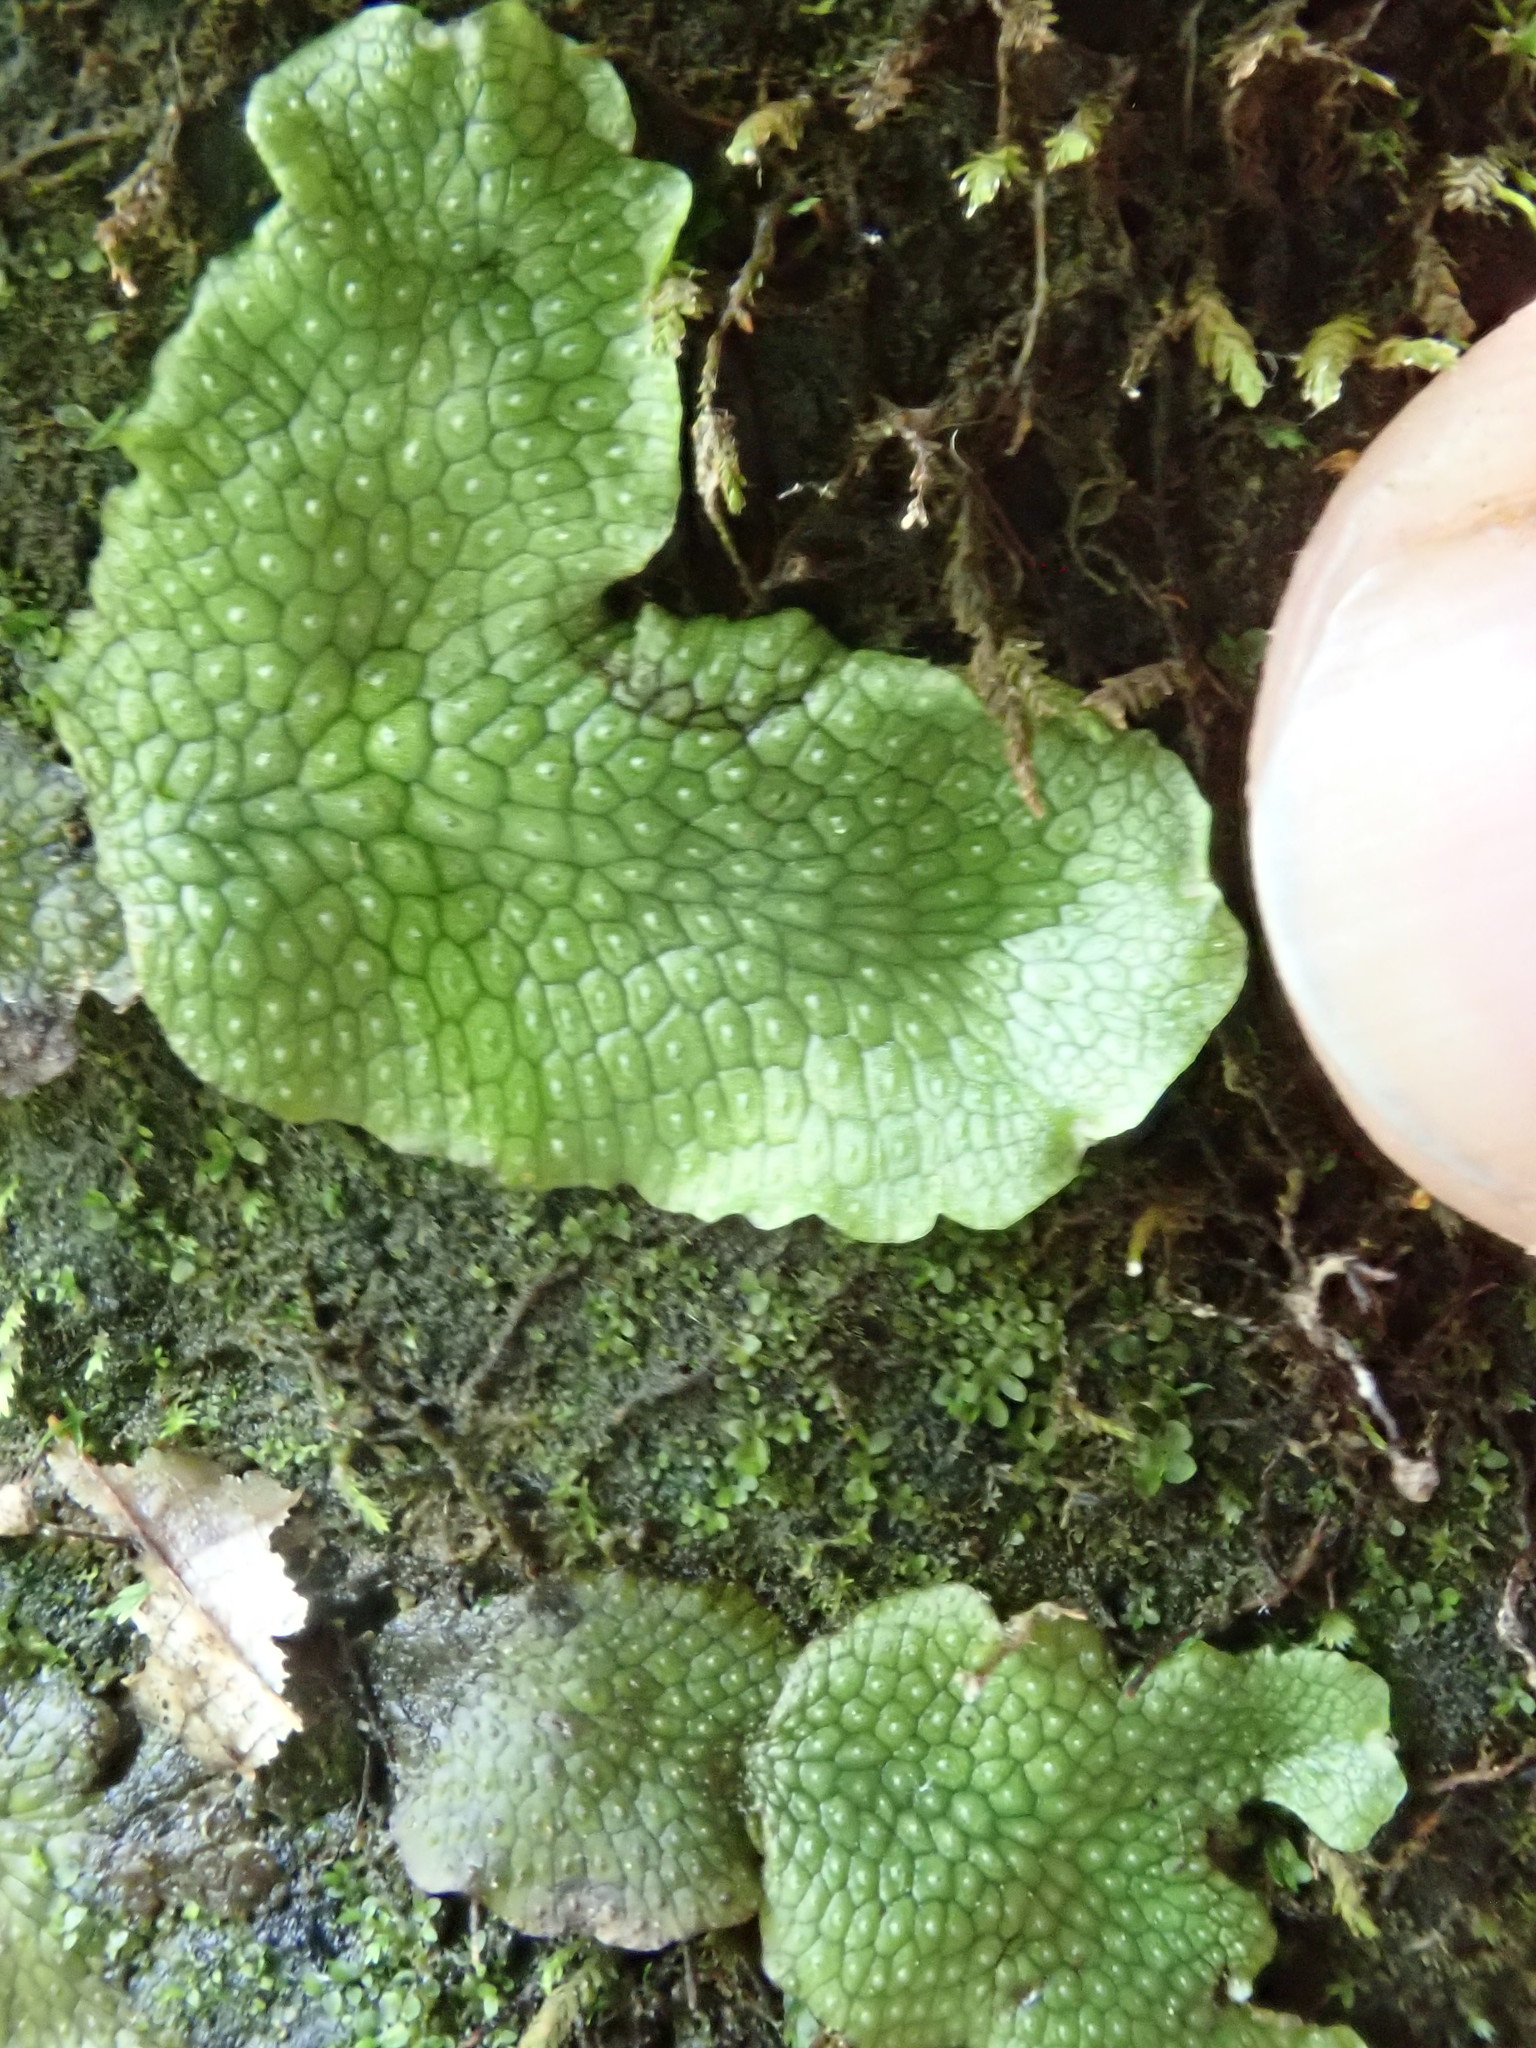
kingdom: Plantae
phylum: Marchantiophyta
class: Marchantiopsida
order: Marchantiales
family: Conocephalaceae
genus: Conocephalum
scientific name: Conocephalum salebrosum
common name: Cat-tongue liverwort
